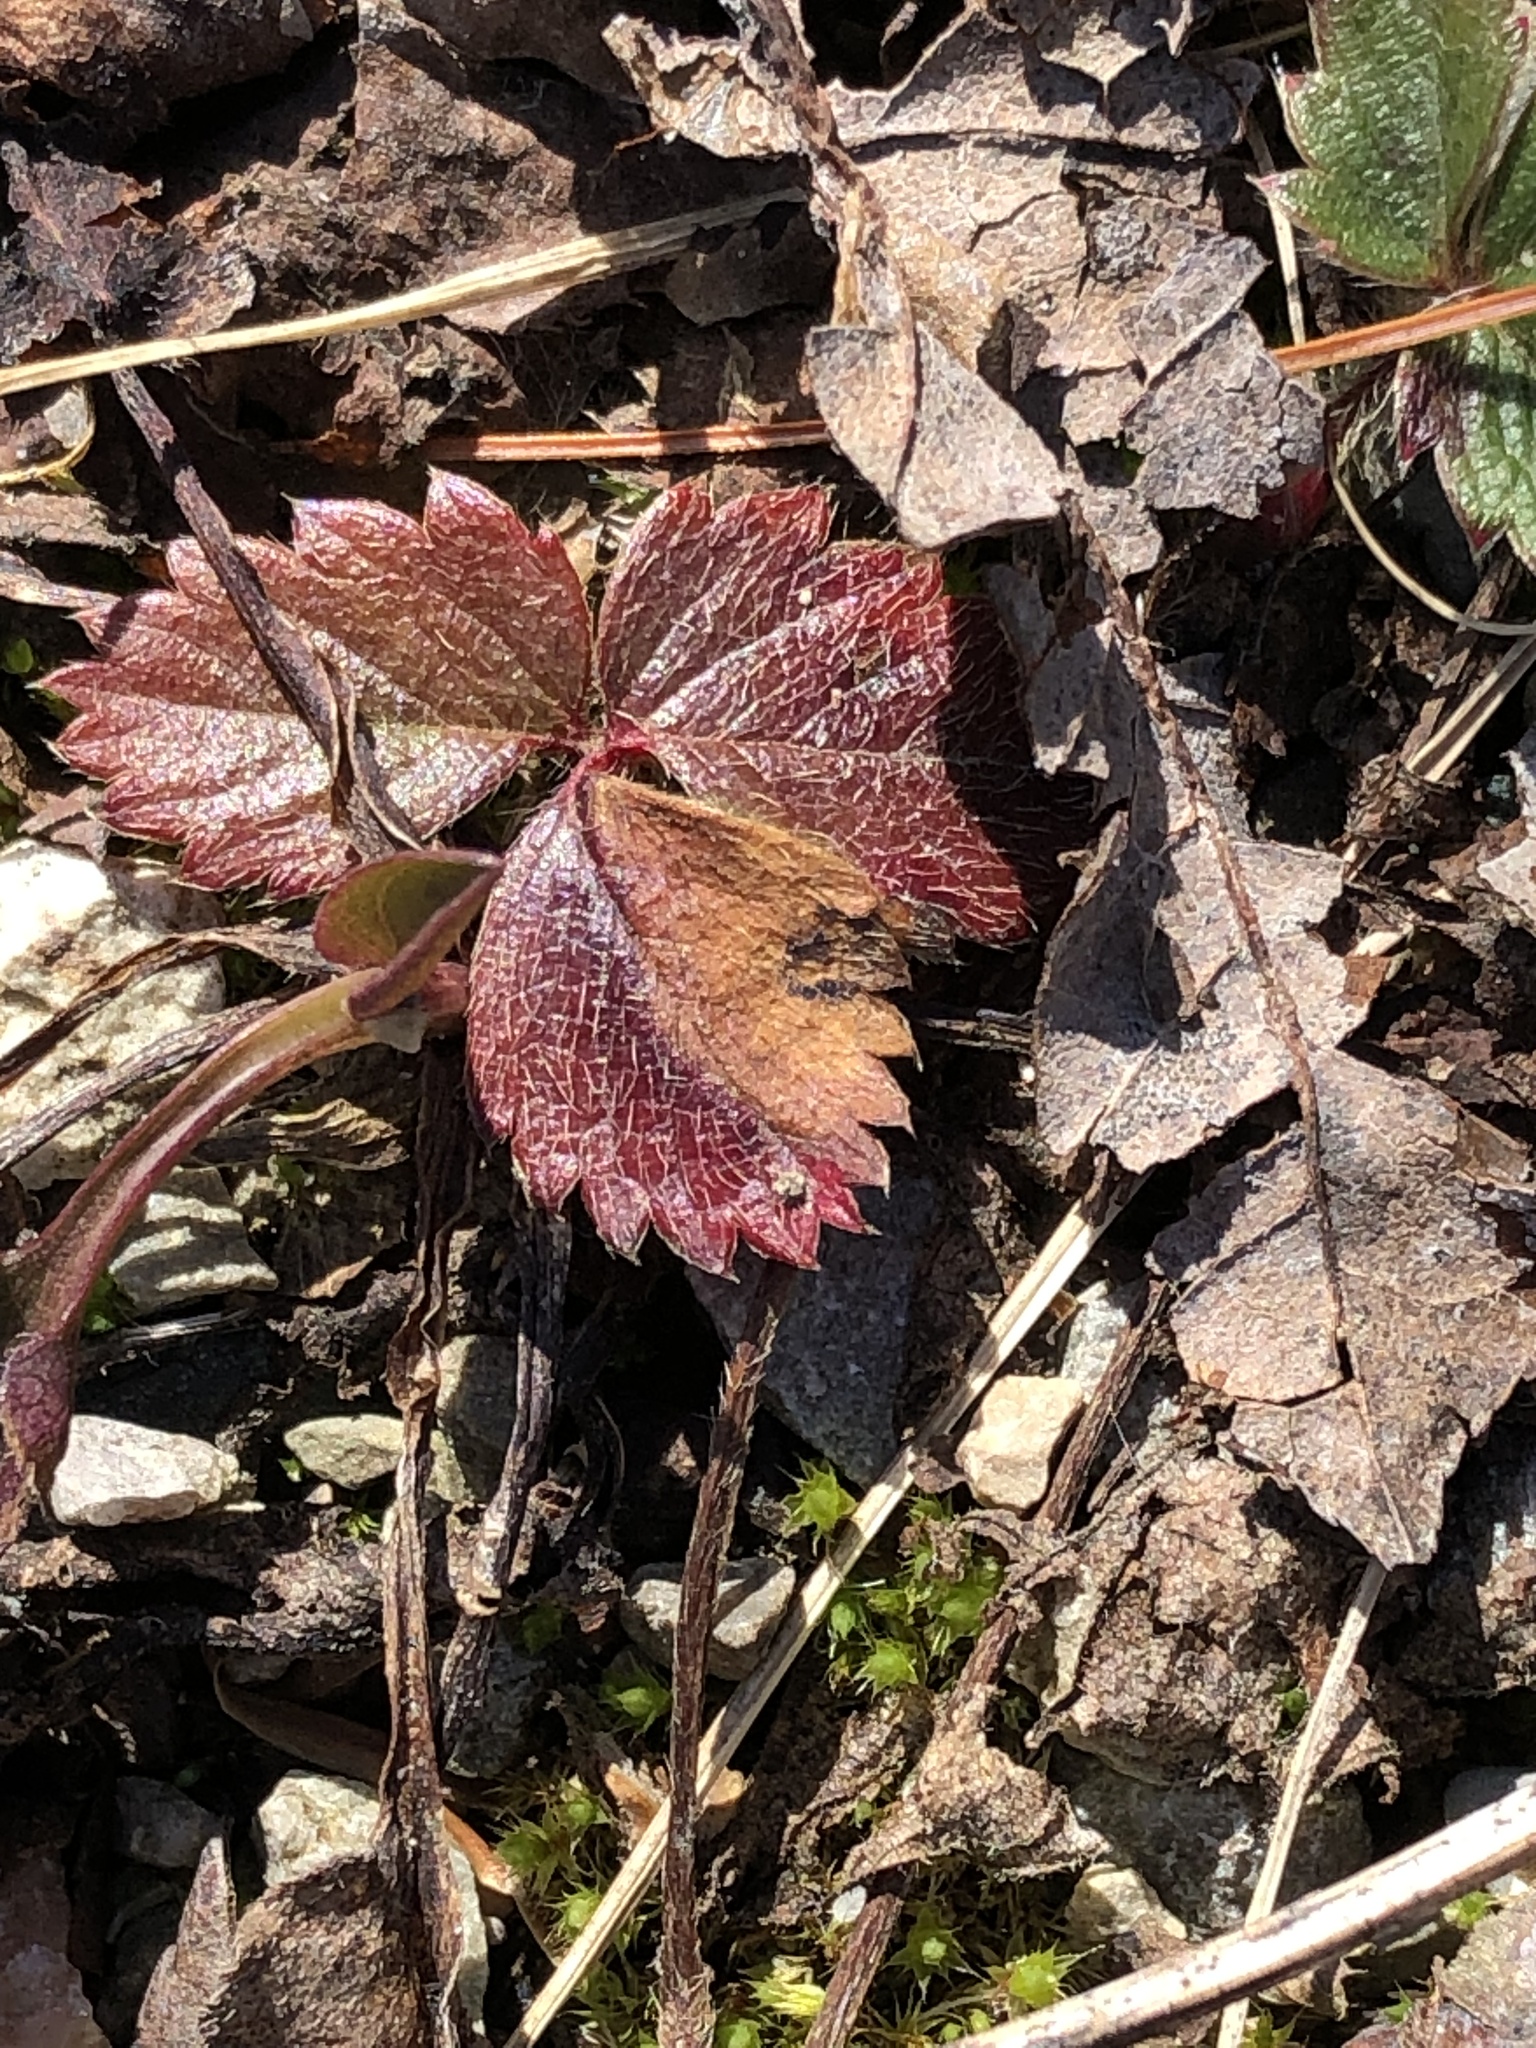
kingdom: Plantae
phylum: Tracheophyta
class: Magnoliopsida
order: Rosales
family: Rosaceae
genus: Fragaria
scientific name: Fragaria virginiana
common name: Thickleaved wild strawberry
